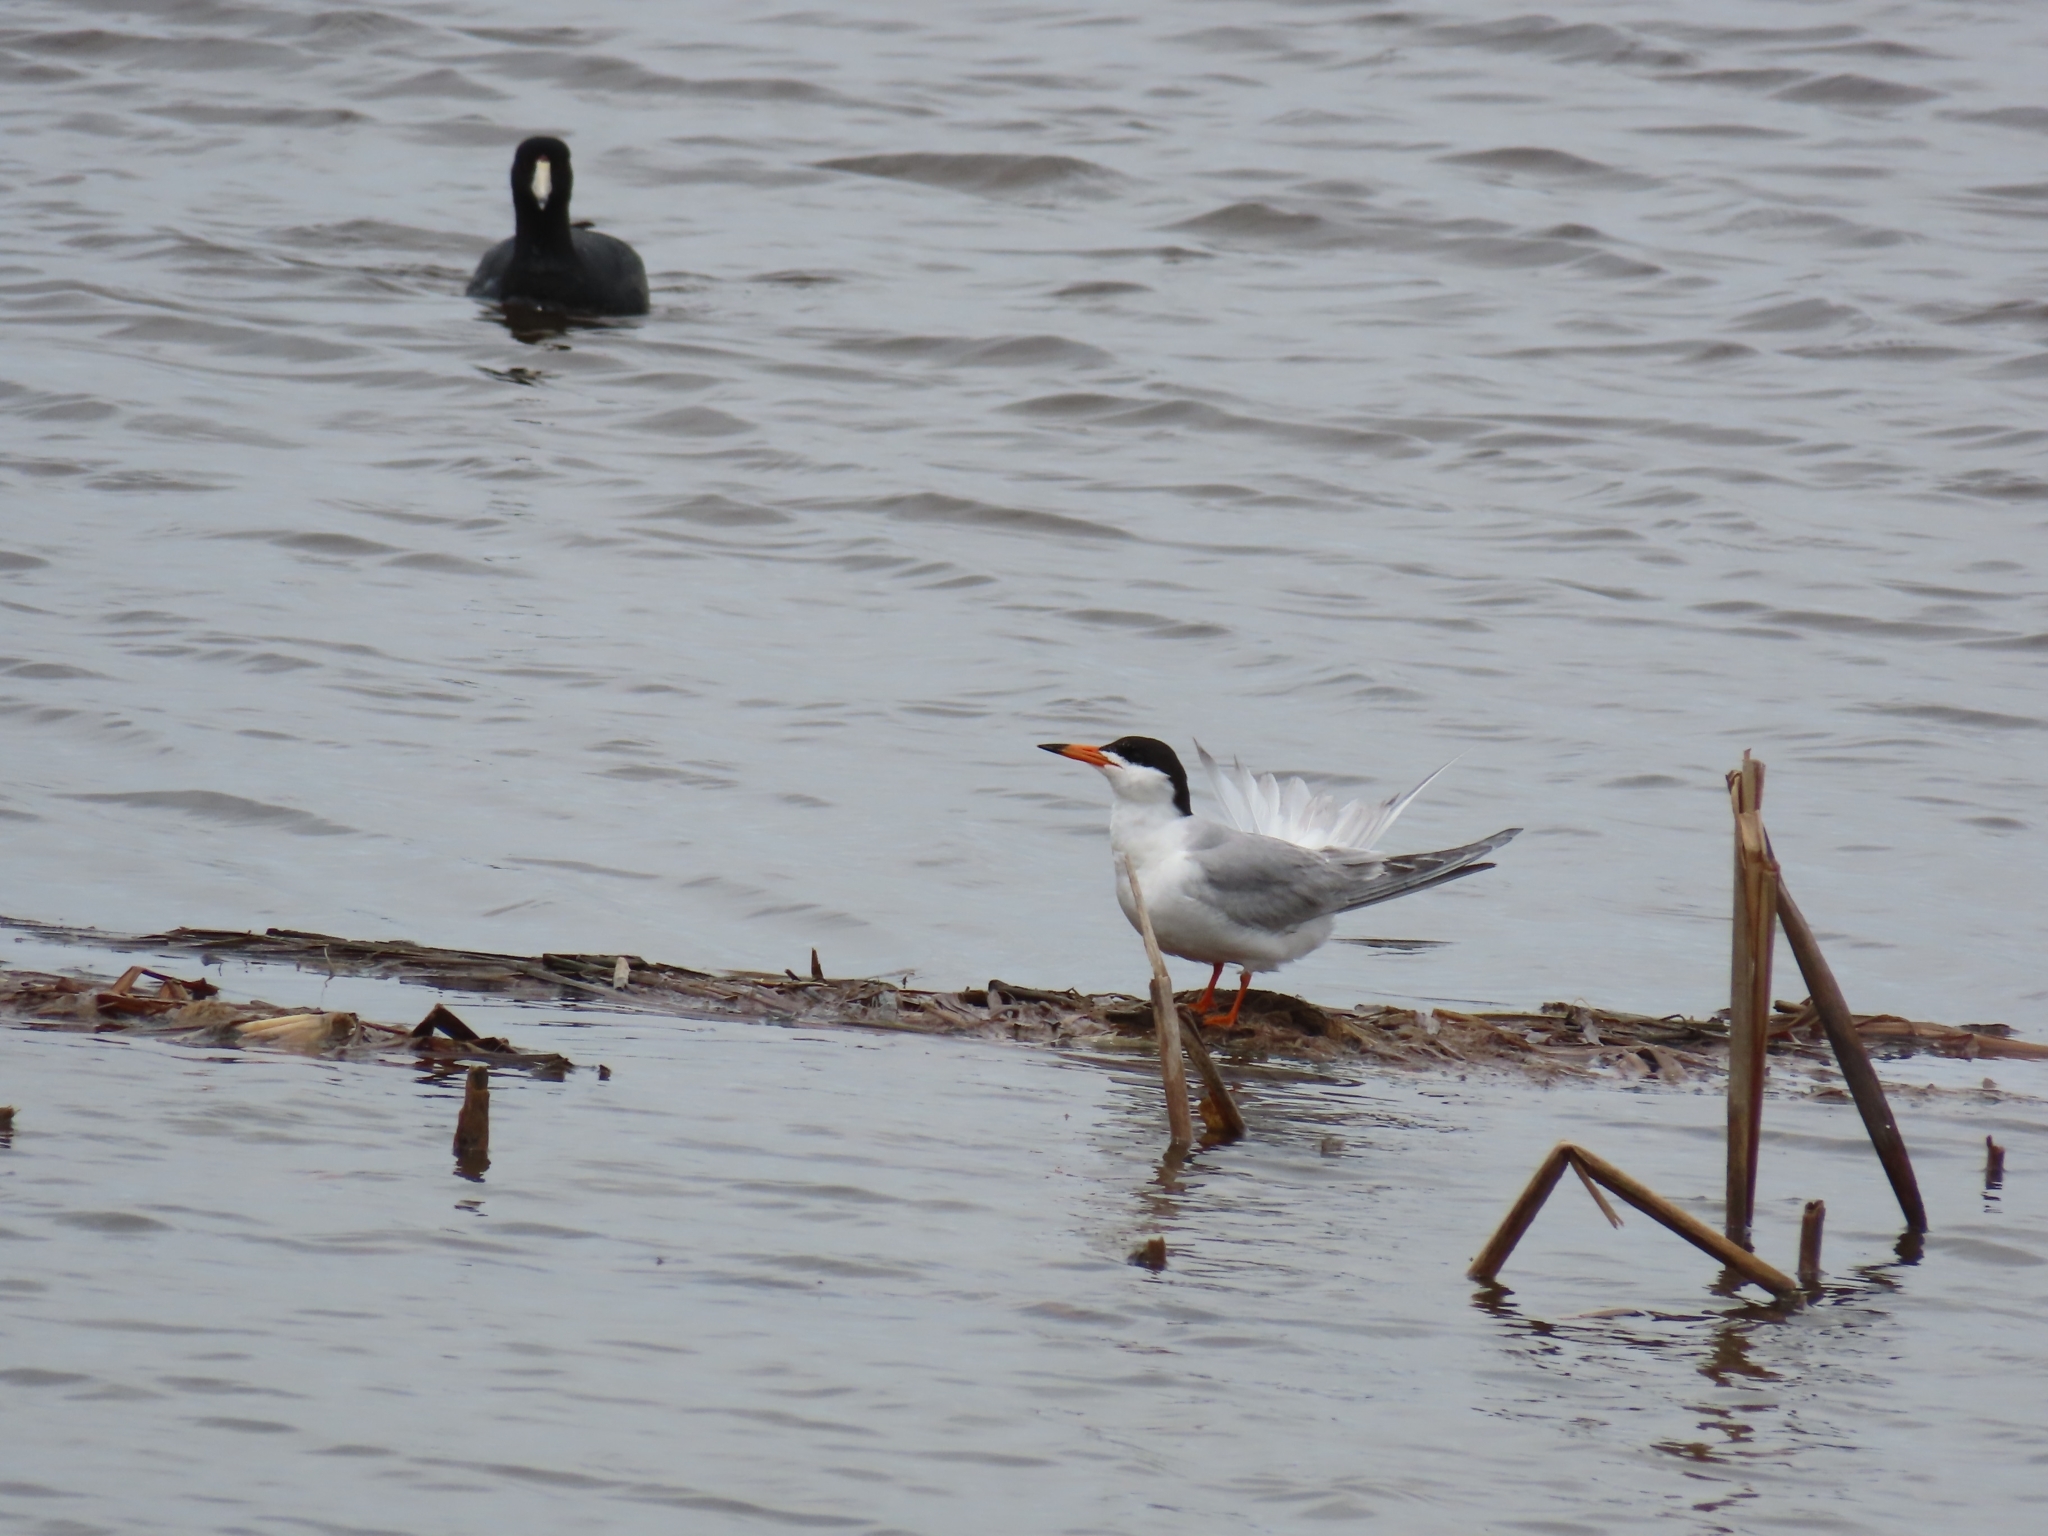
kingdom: Animalia
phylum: Chordata
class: Aves
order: Charadriiformes
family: Laridae
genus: Sterna
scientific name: Sterna forsteri
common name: Forster's tern
